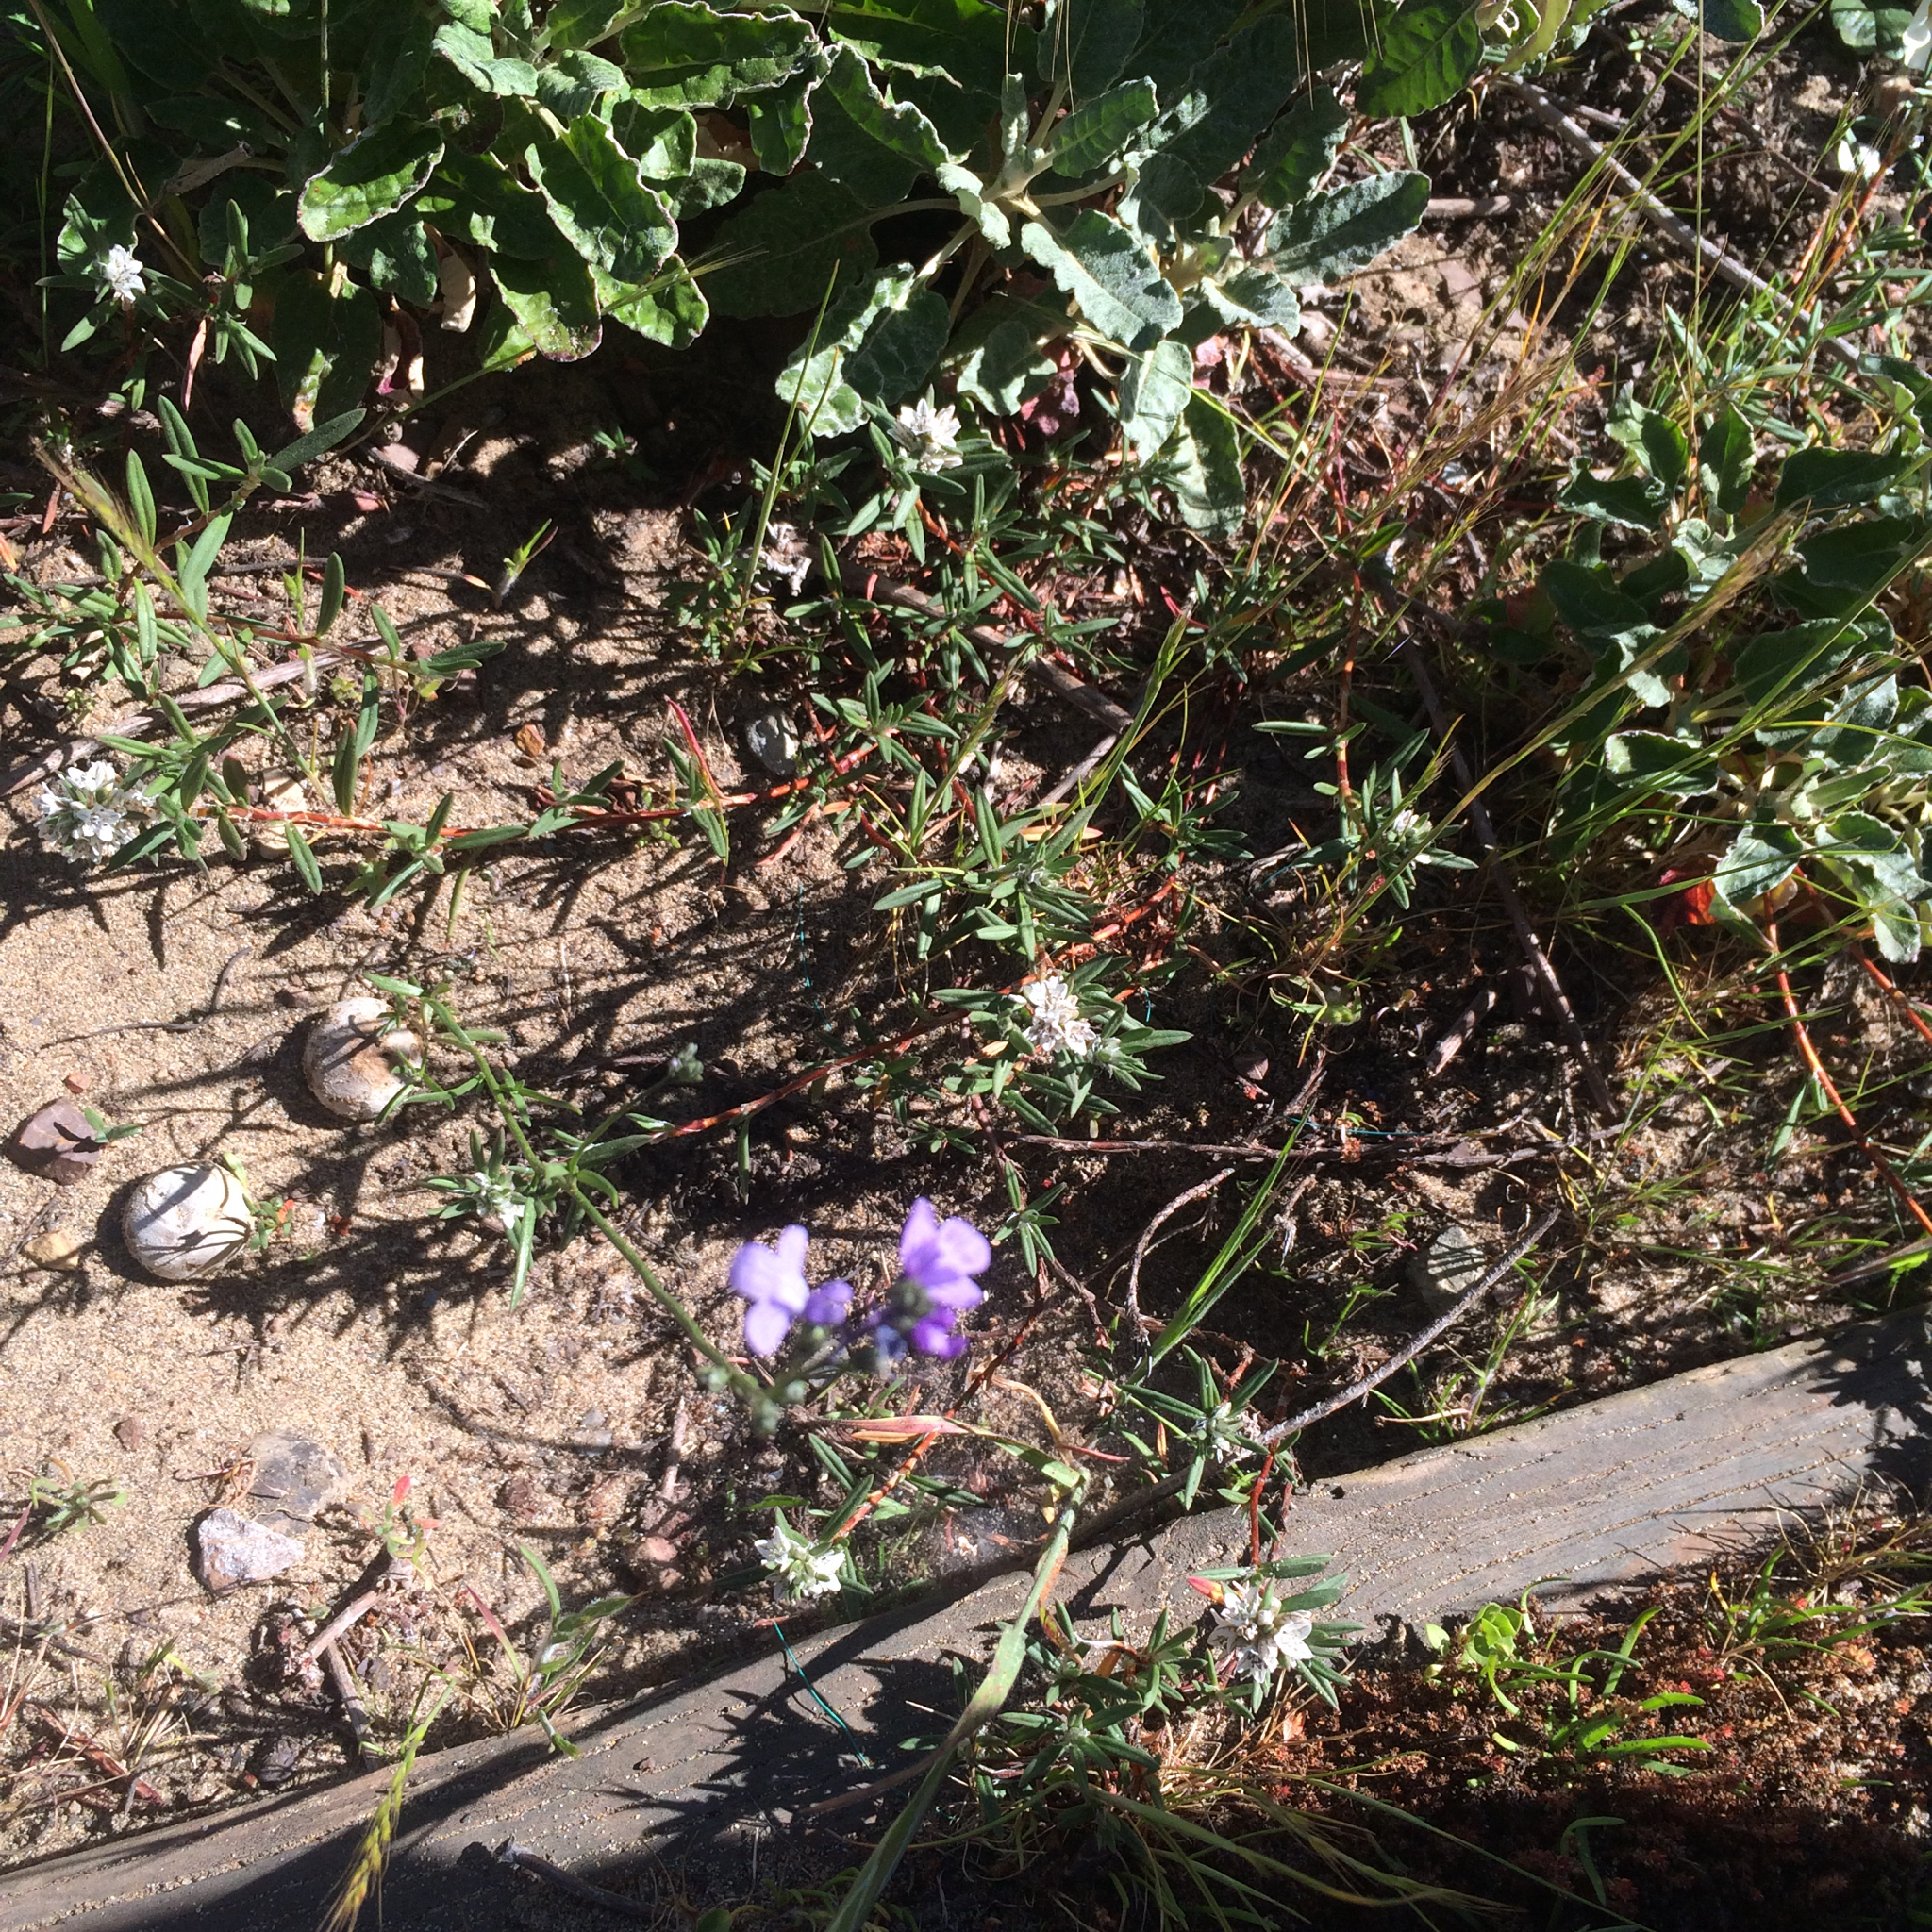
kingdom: Plantae
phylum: Tracheophyta
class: Magnoliopsida
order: Lamiales
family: Plantaginaceae
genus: Nuttallanthus
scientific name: Nuttallanthus texanus
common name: Texas toadflax
